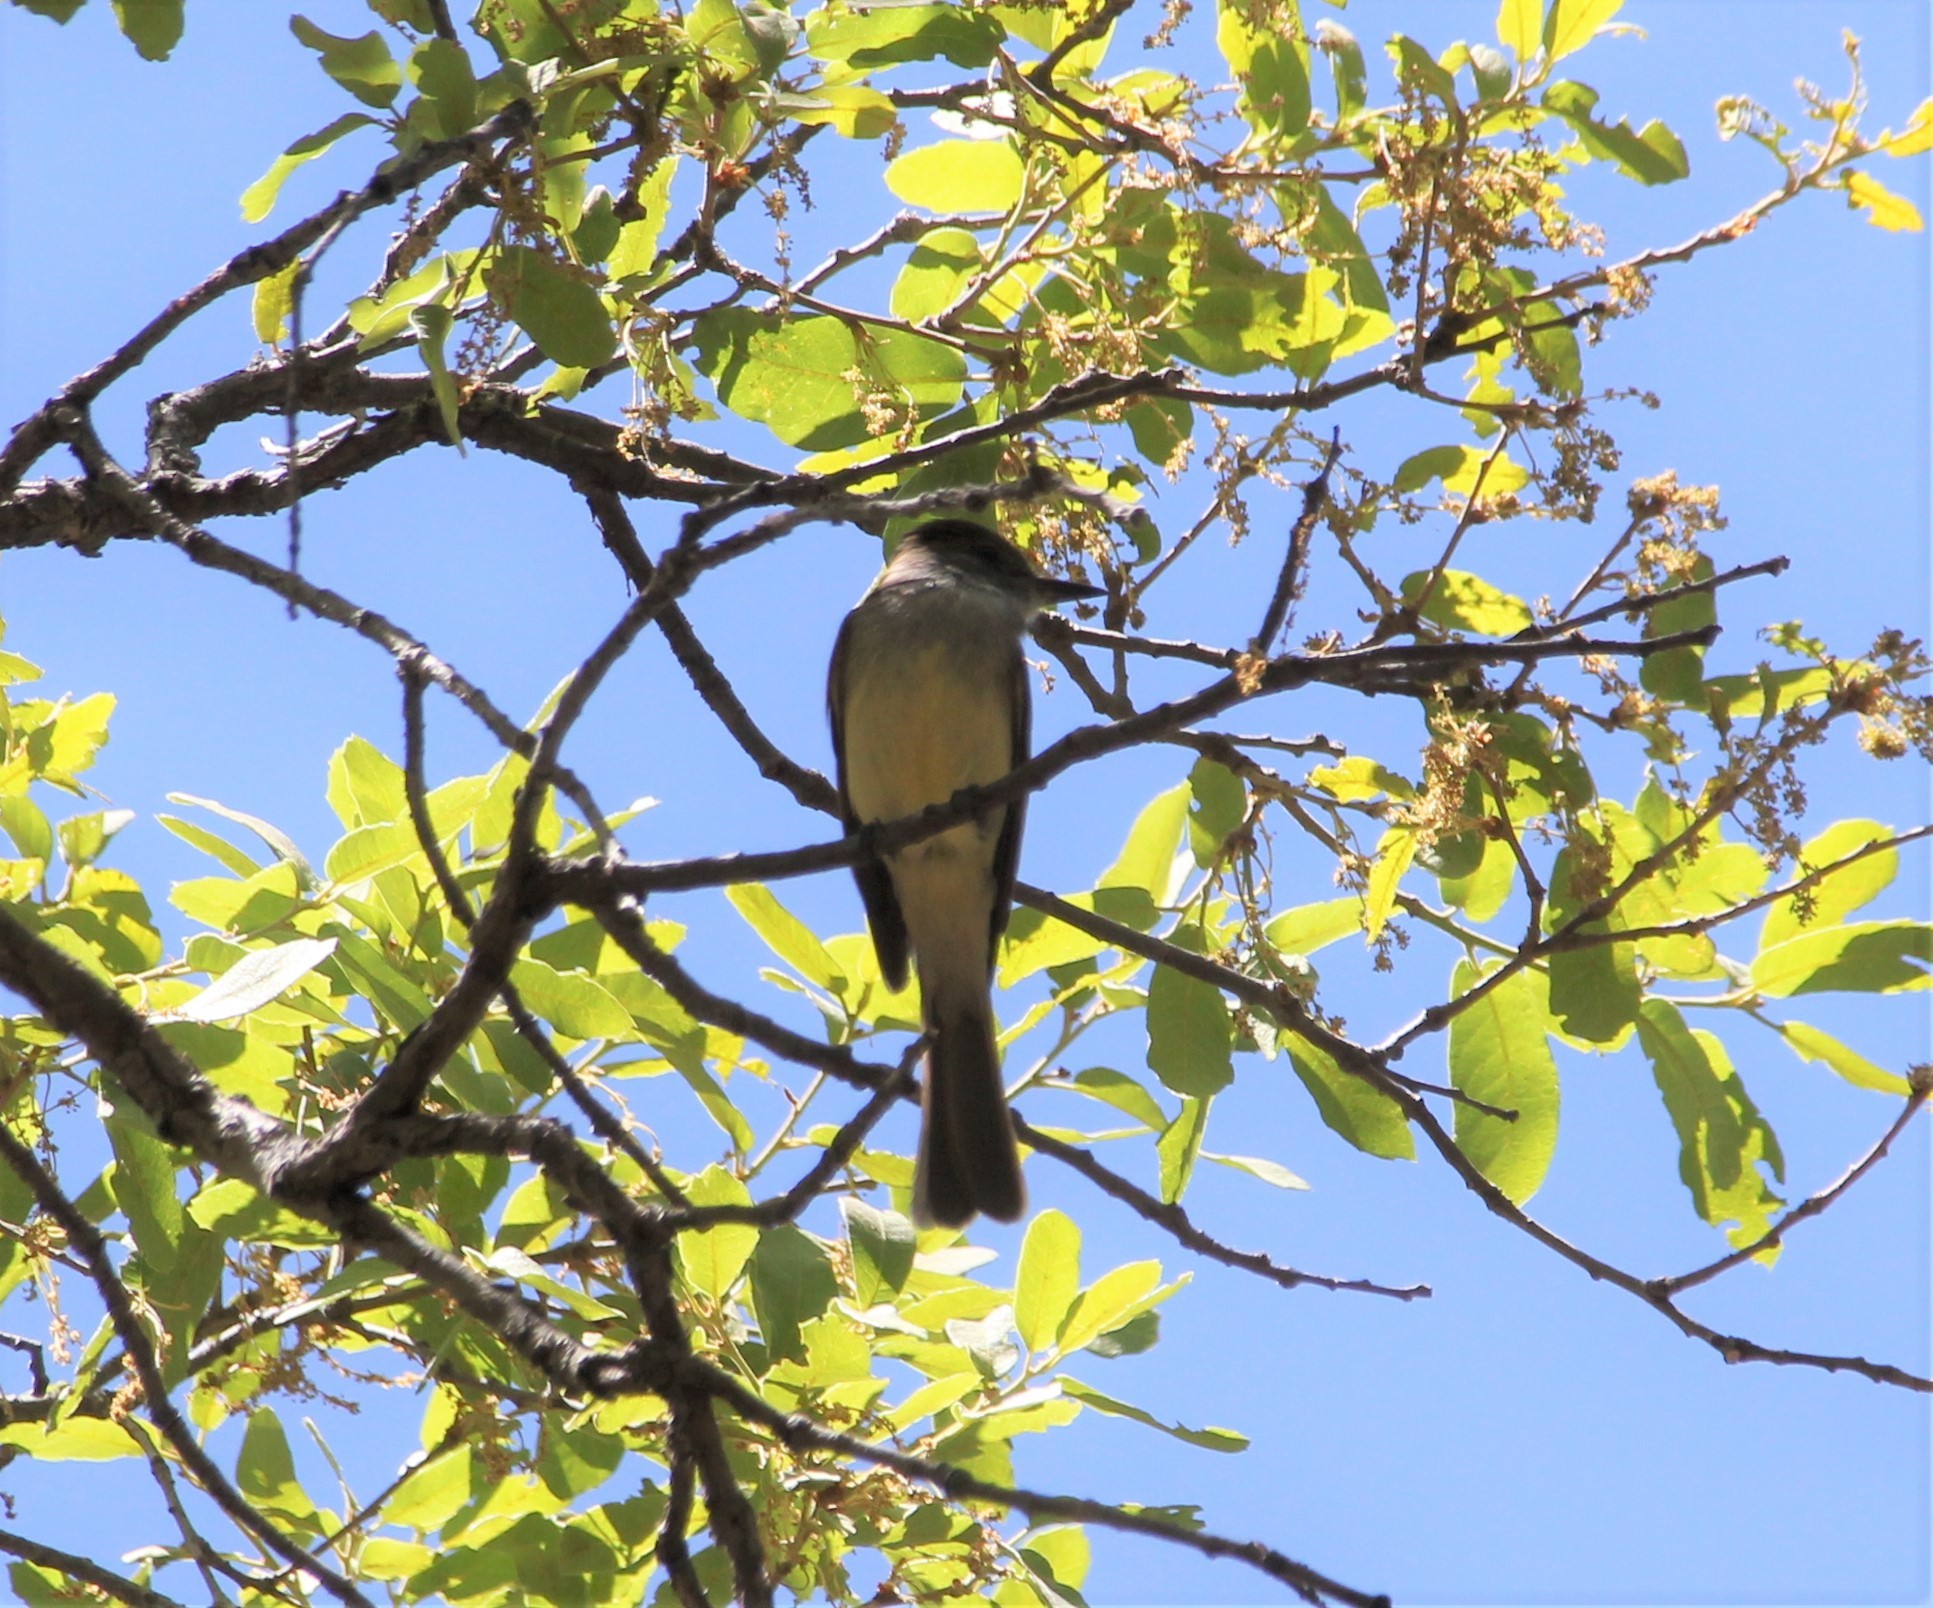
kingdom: Animalia
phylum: Chordata
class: Aves
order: Passeriformes
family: Tyrannidae
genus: Myiarchus
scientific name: Myiarchus tuberculifer
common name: Dusky-capped flycatcher
